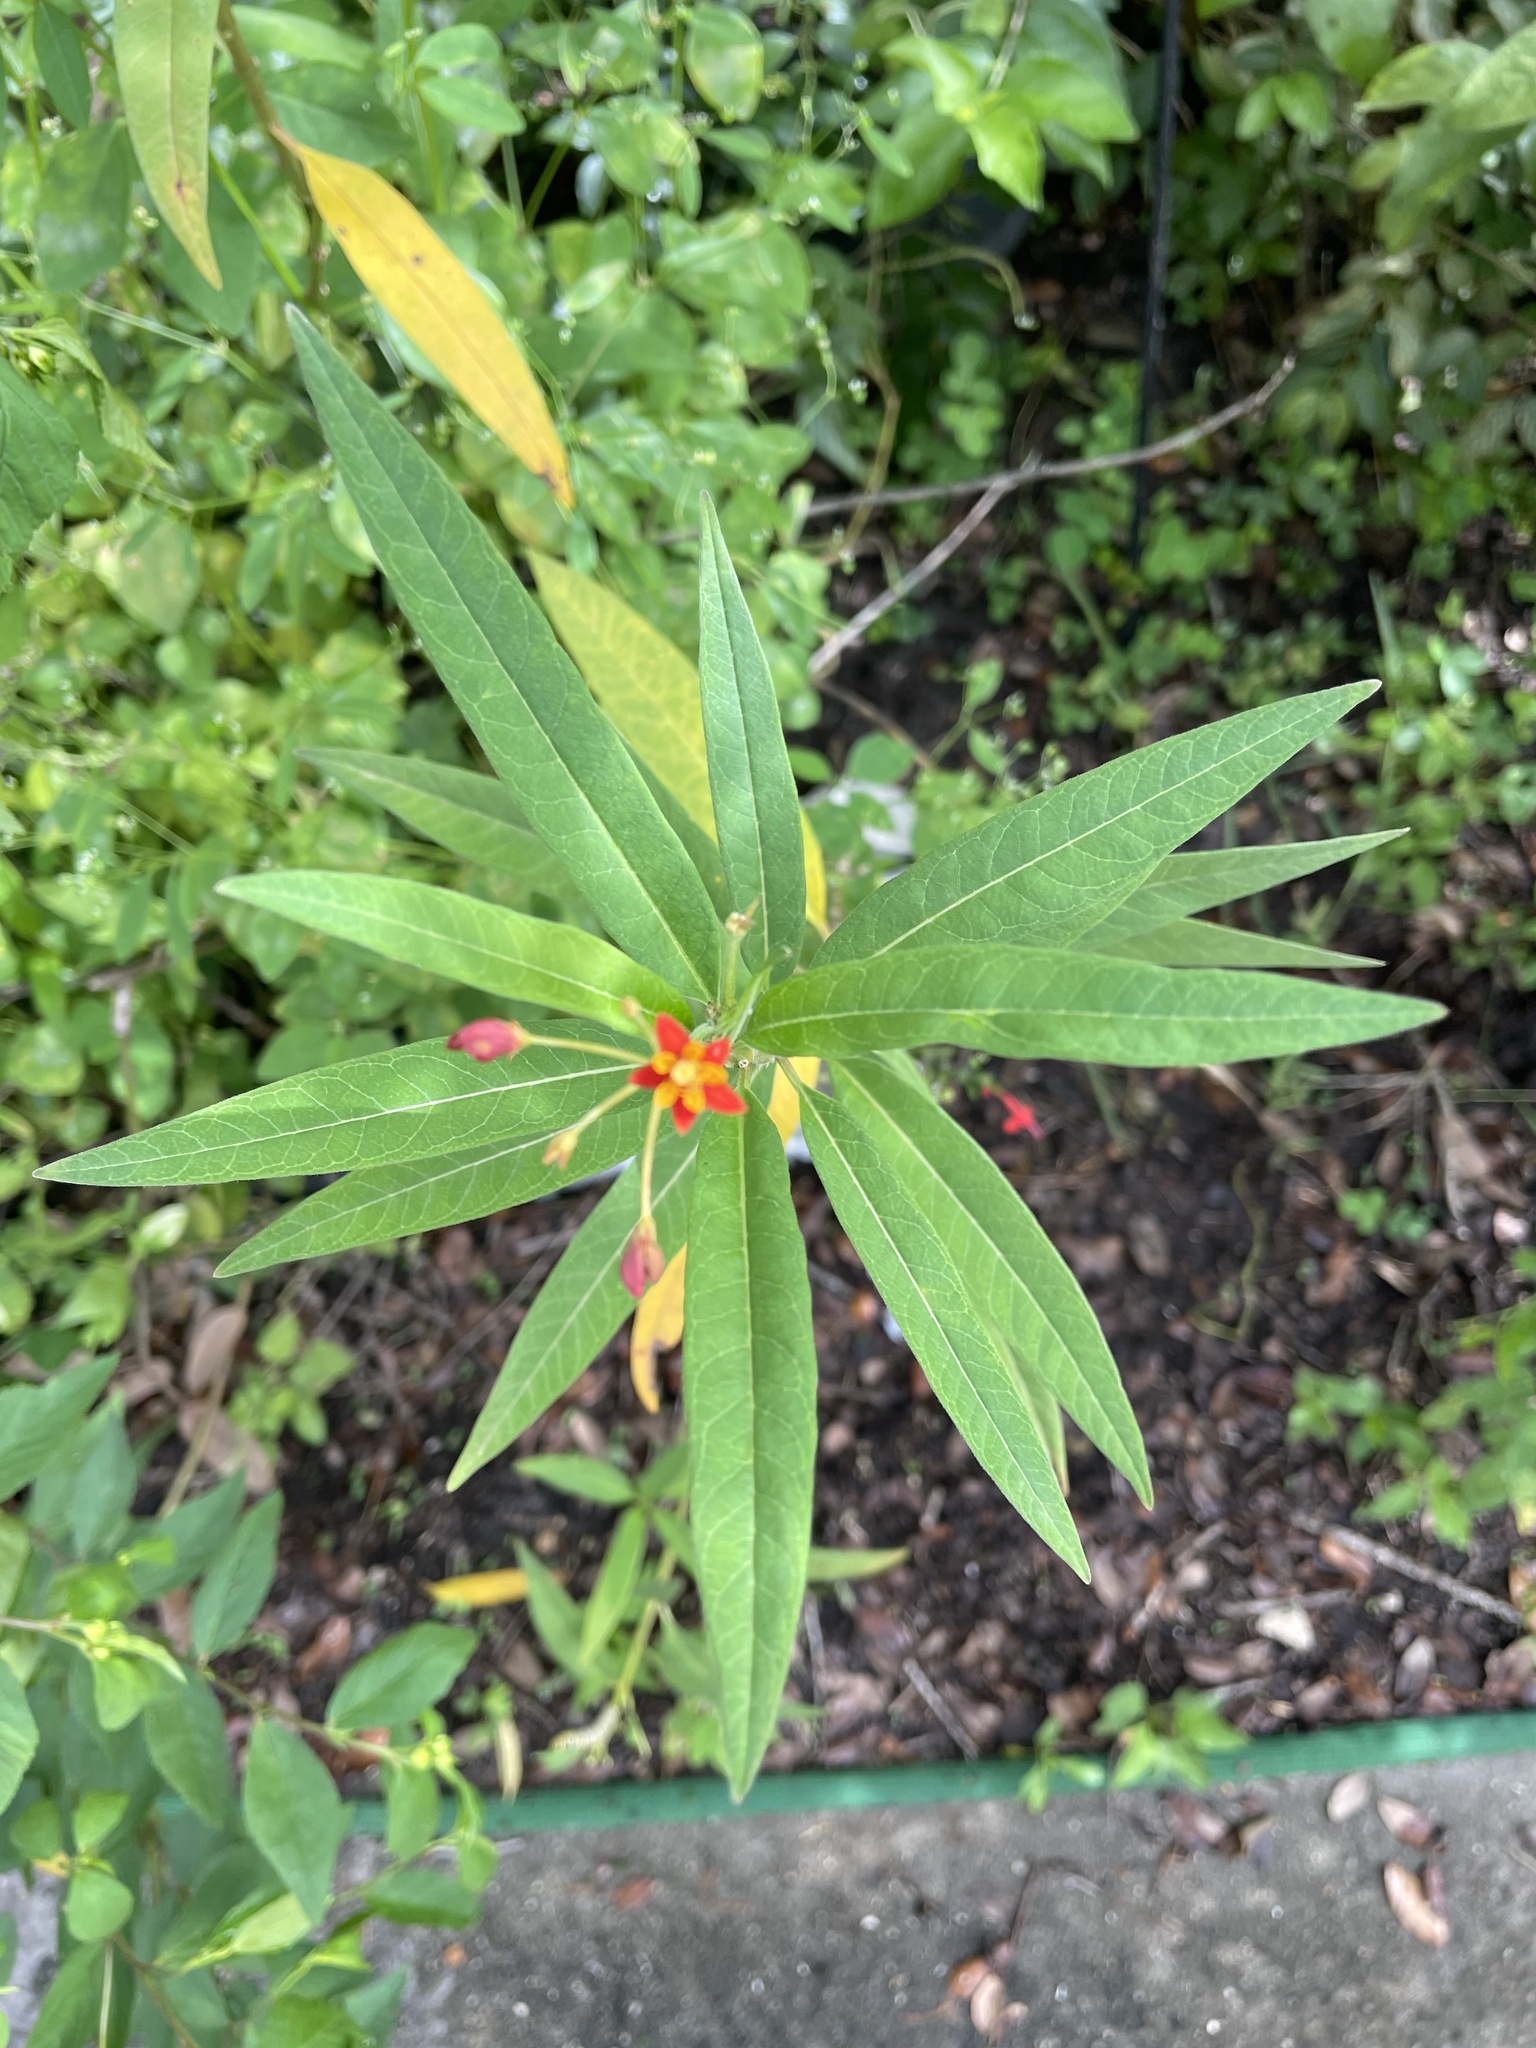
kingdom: Plantae
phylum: Tracheophyta
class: Magnoliopsida
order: Gentianales
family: Apocynaceae
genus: Asclepias
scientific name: Asclepias curassavica
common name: Bloodflower
